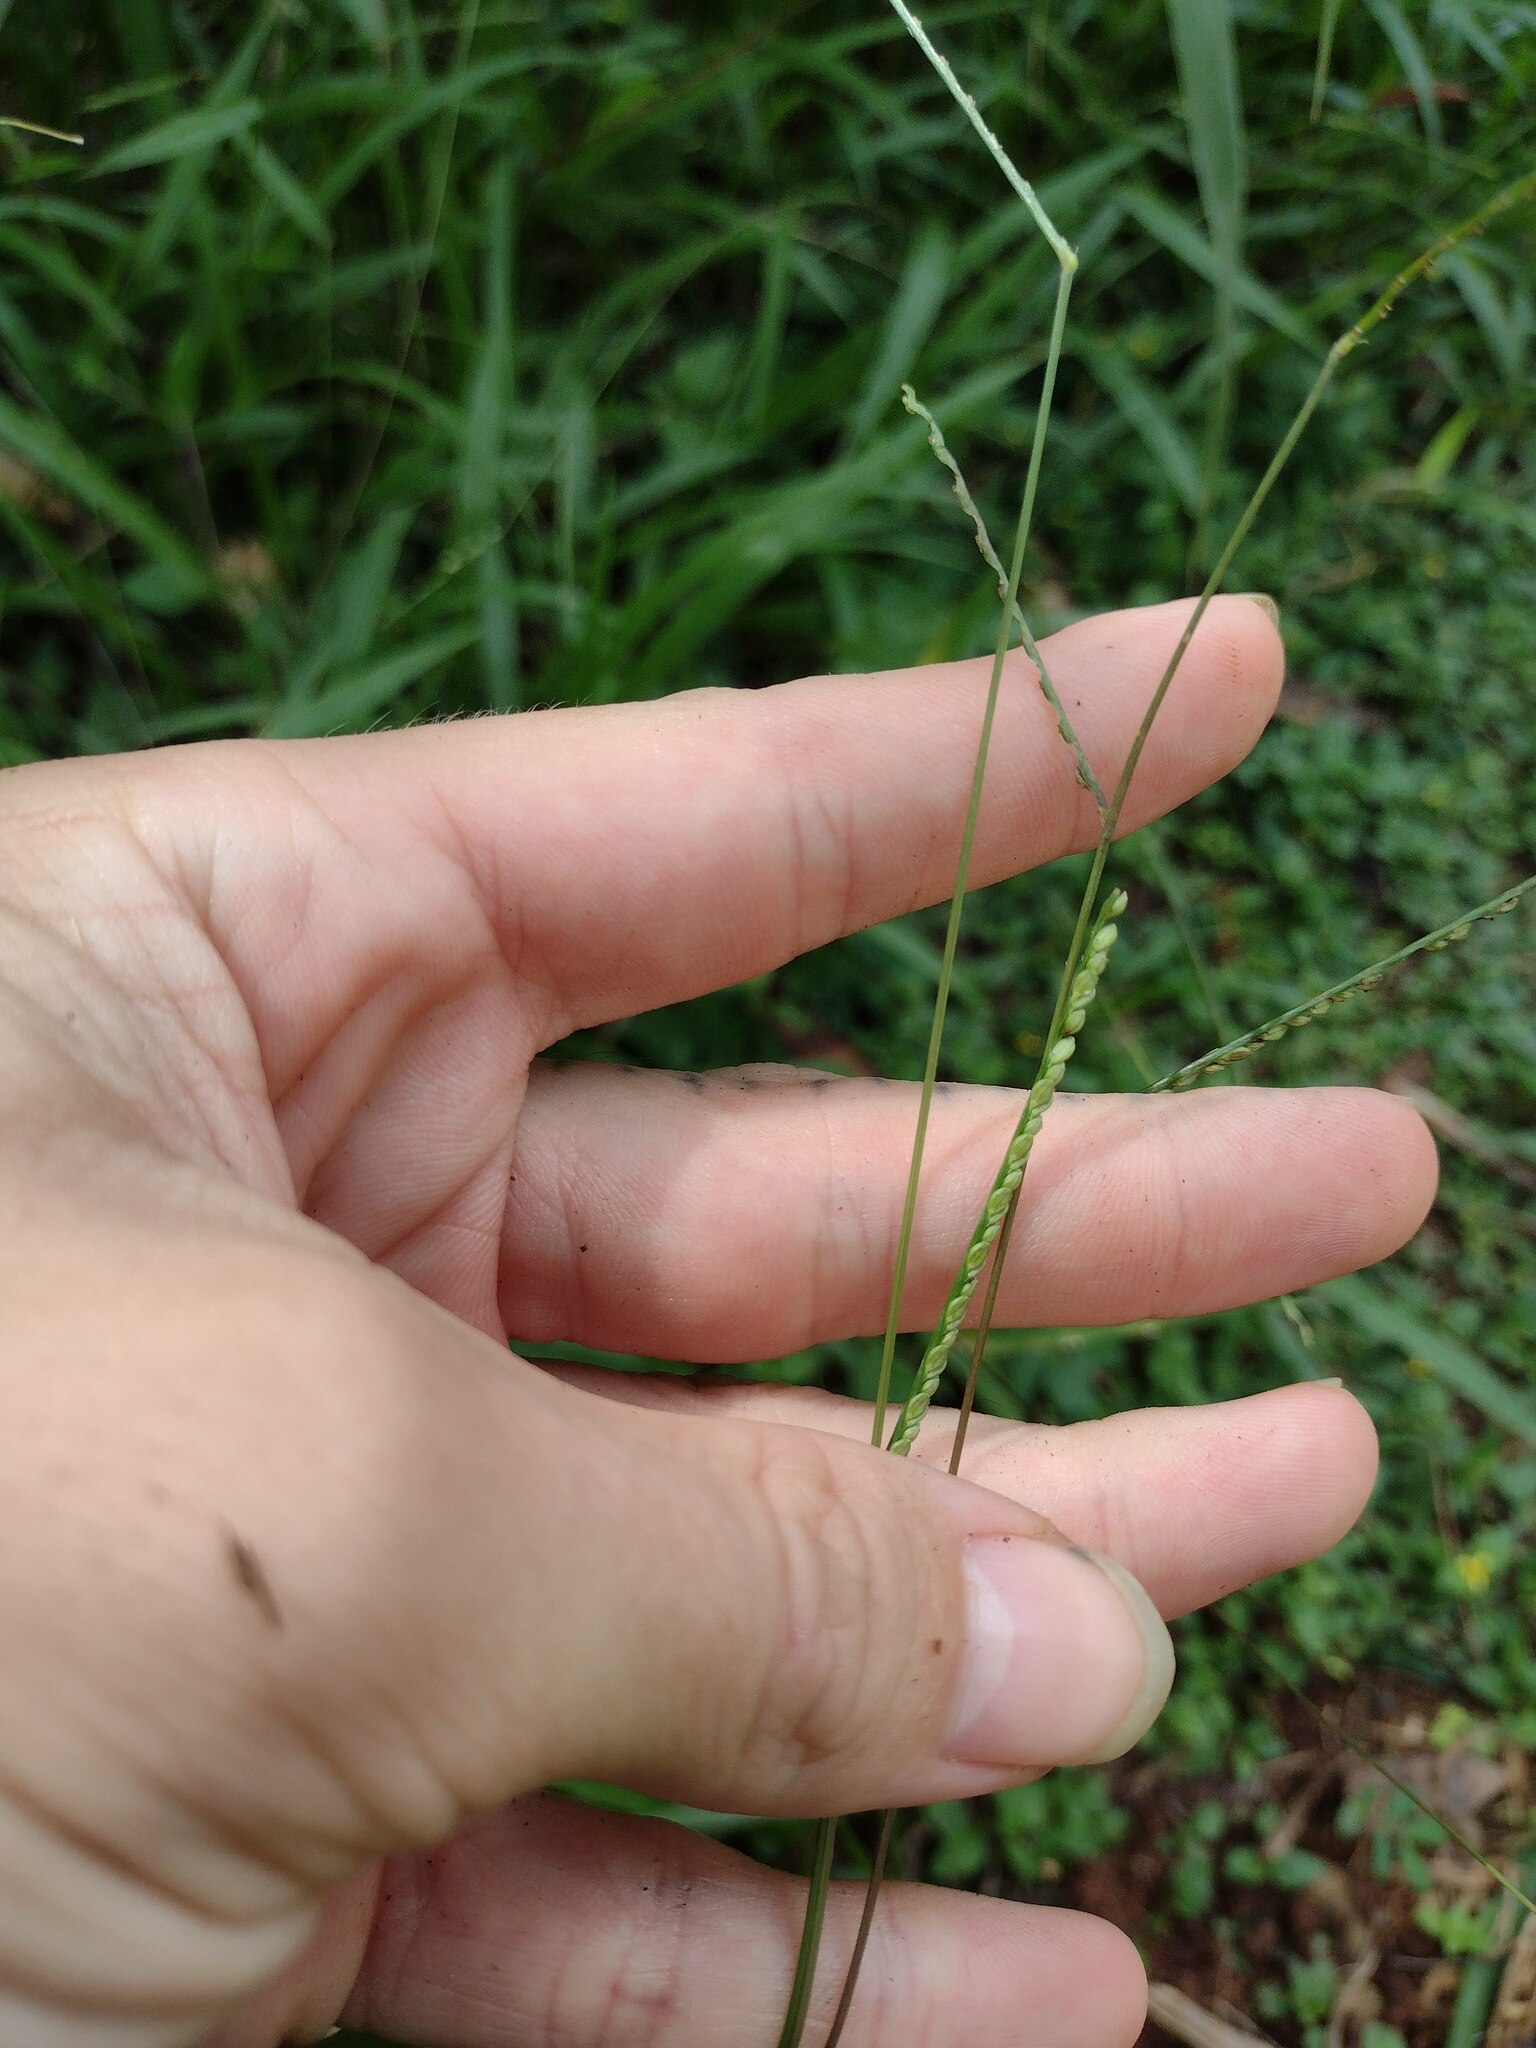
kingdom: Plantae
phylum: Tracheophyta
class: Liliopsida
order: Poales
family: Poaceae
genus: Paspalum
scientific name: Paspalum langei
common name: Rusty-seed paspalum
